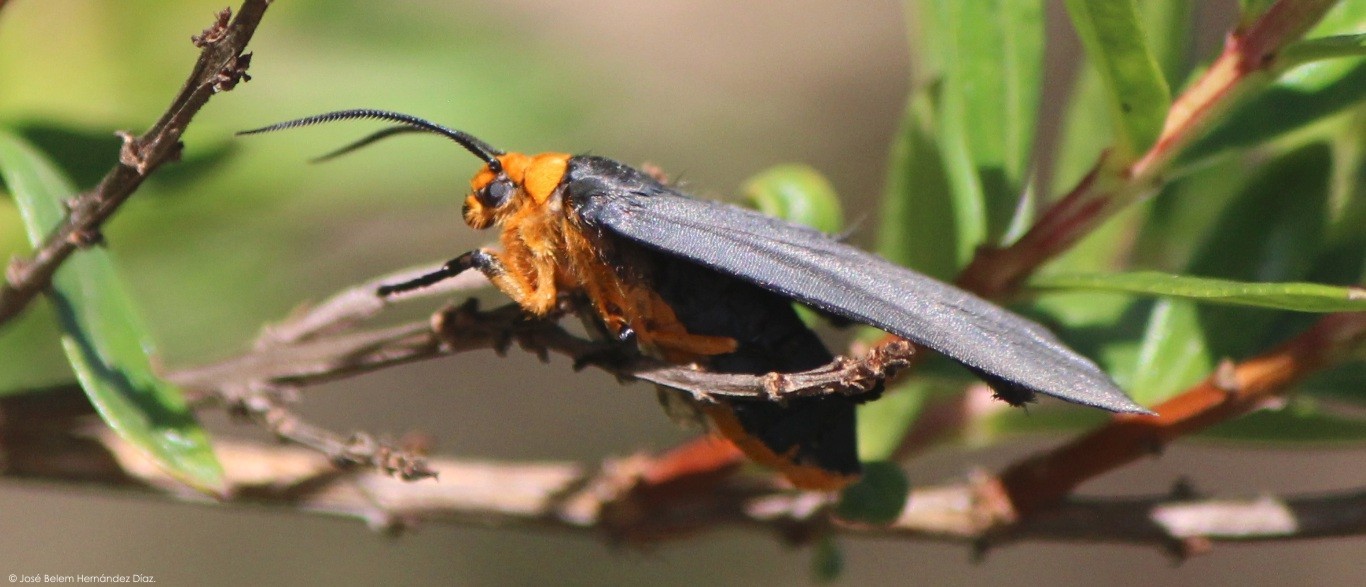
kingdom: Animalia
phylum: Arthropoda
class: Insecta
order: Lepidoptera
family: Erebidae
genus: Gnamptonychia
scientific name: Gnamptonychia ventralis
